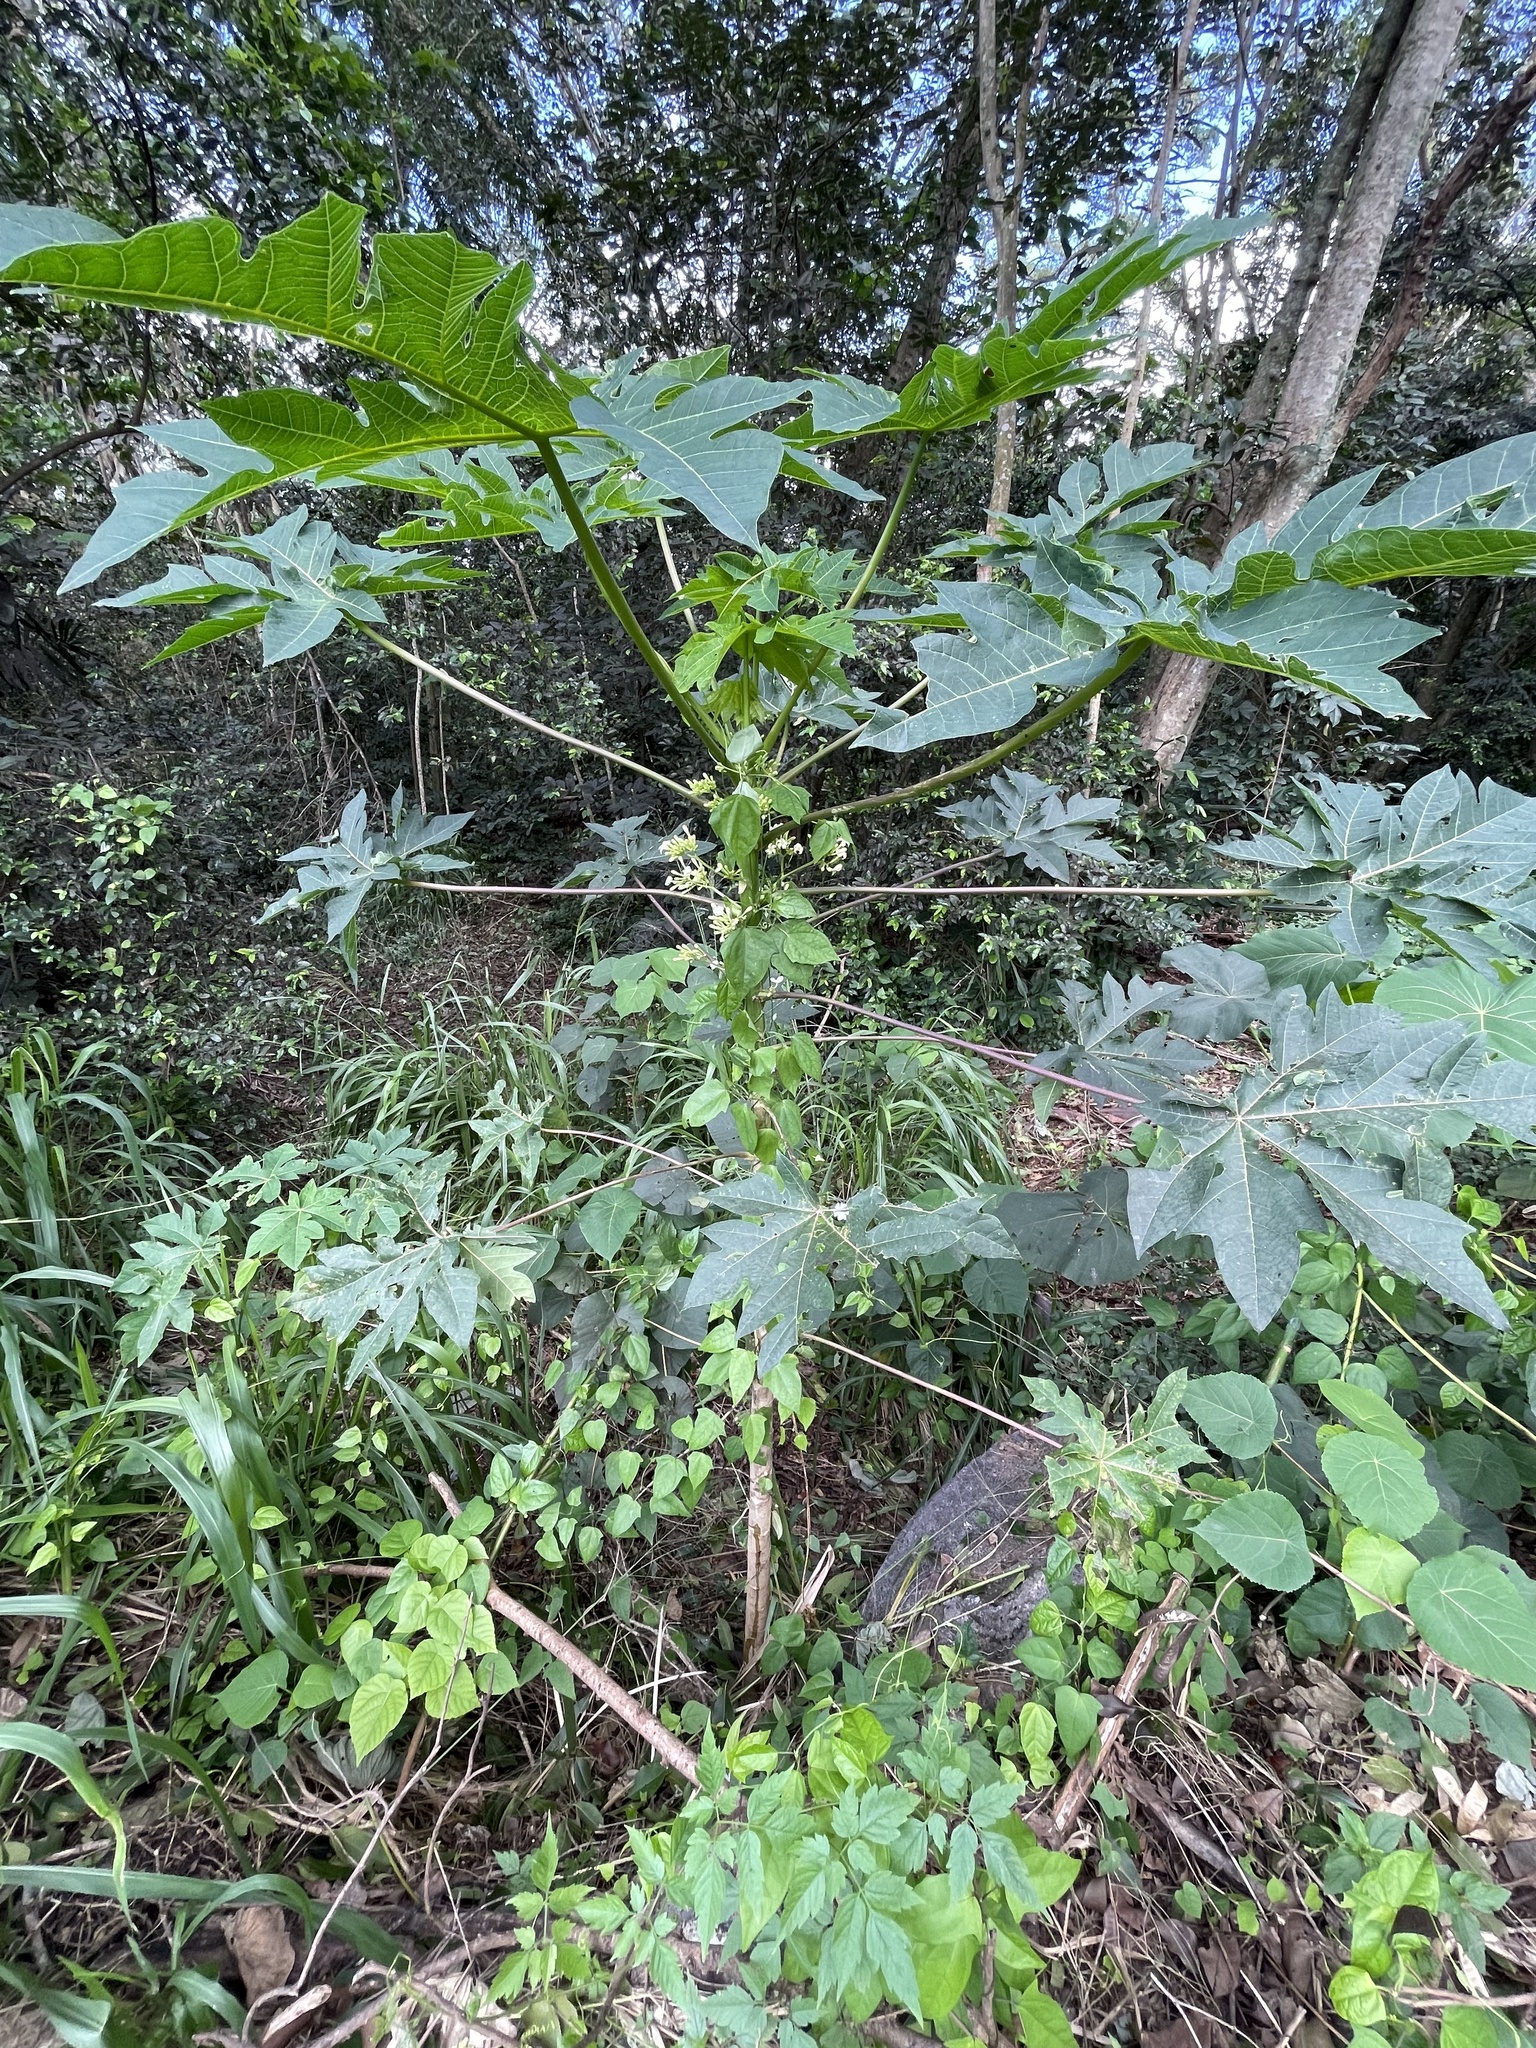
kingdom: Plantae
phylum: Tracheophyta
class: Magnoliopsida
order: Brassicales
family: Caricaceae
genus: Carica
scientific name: Carica papaya
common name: Papaya
